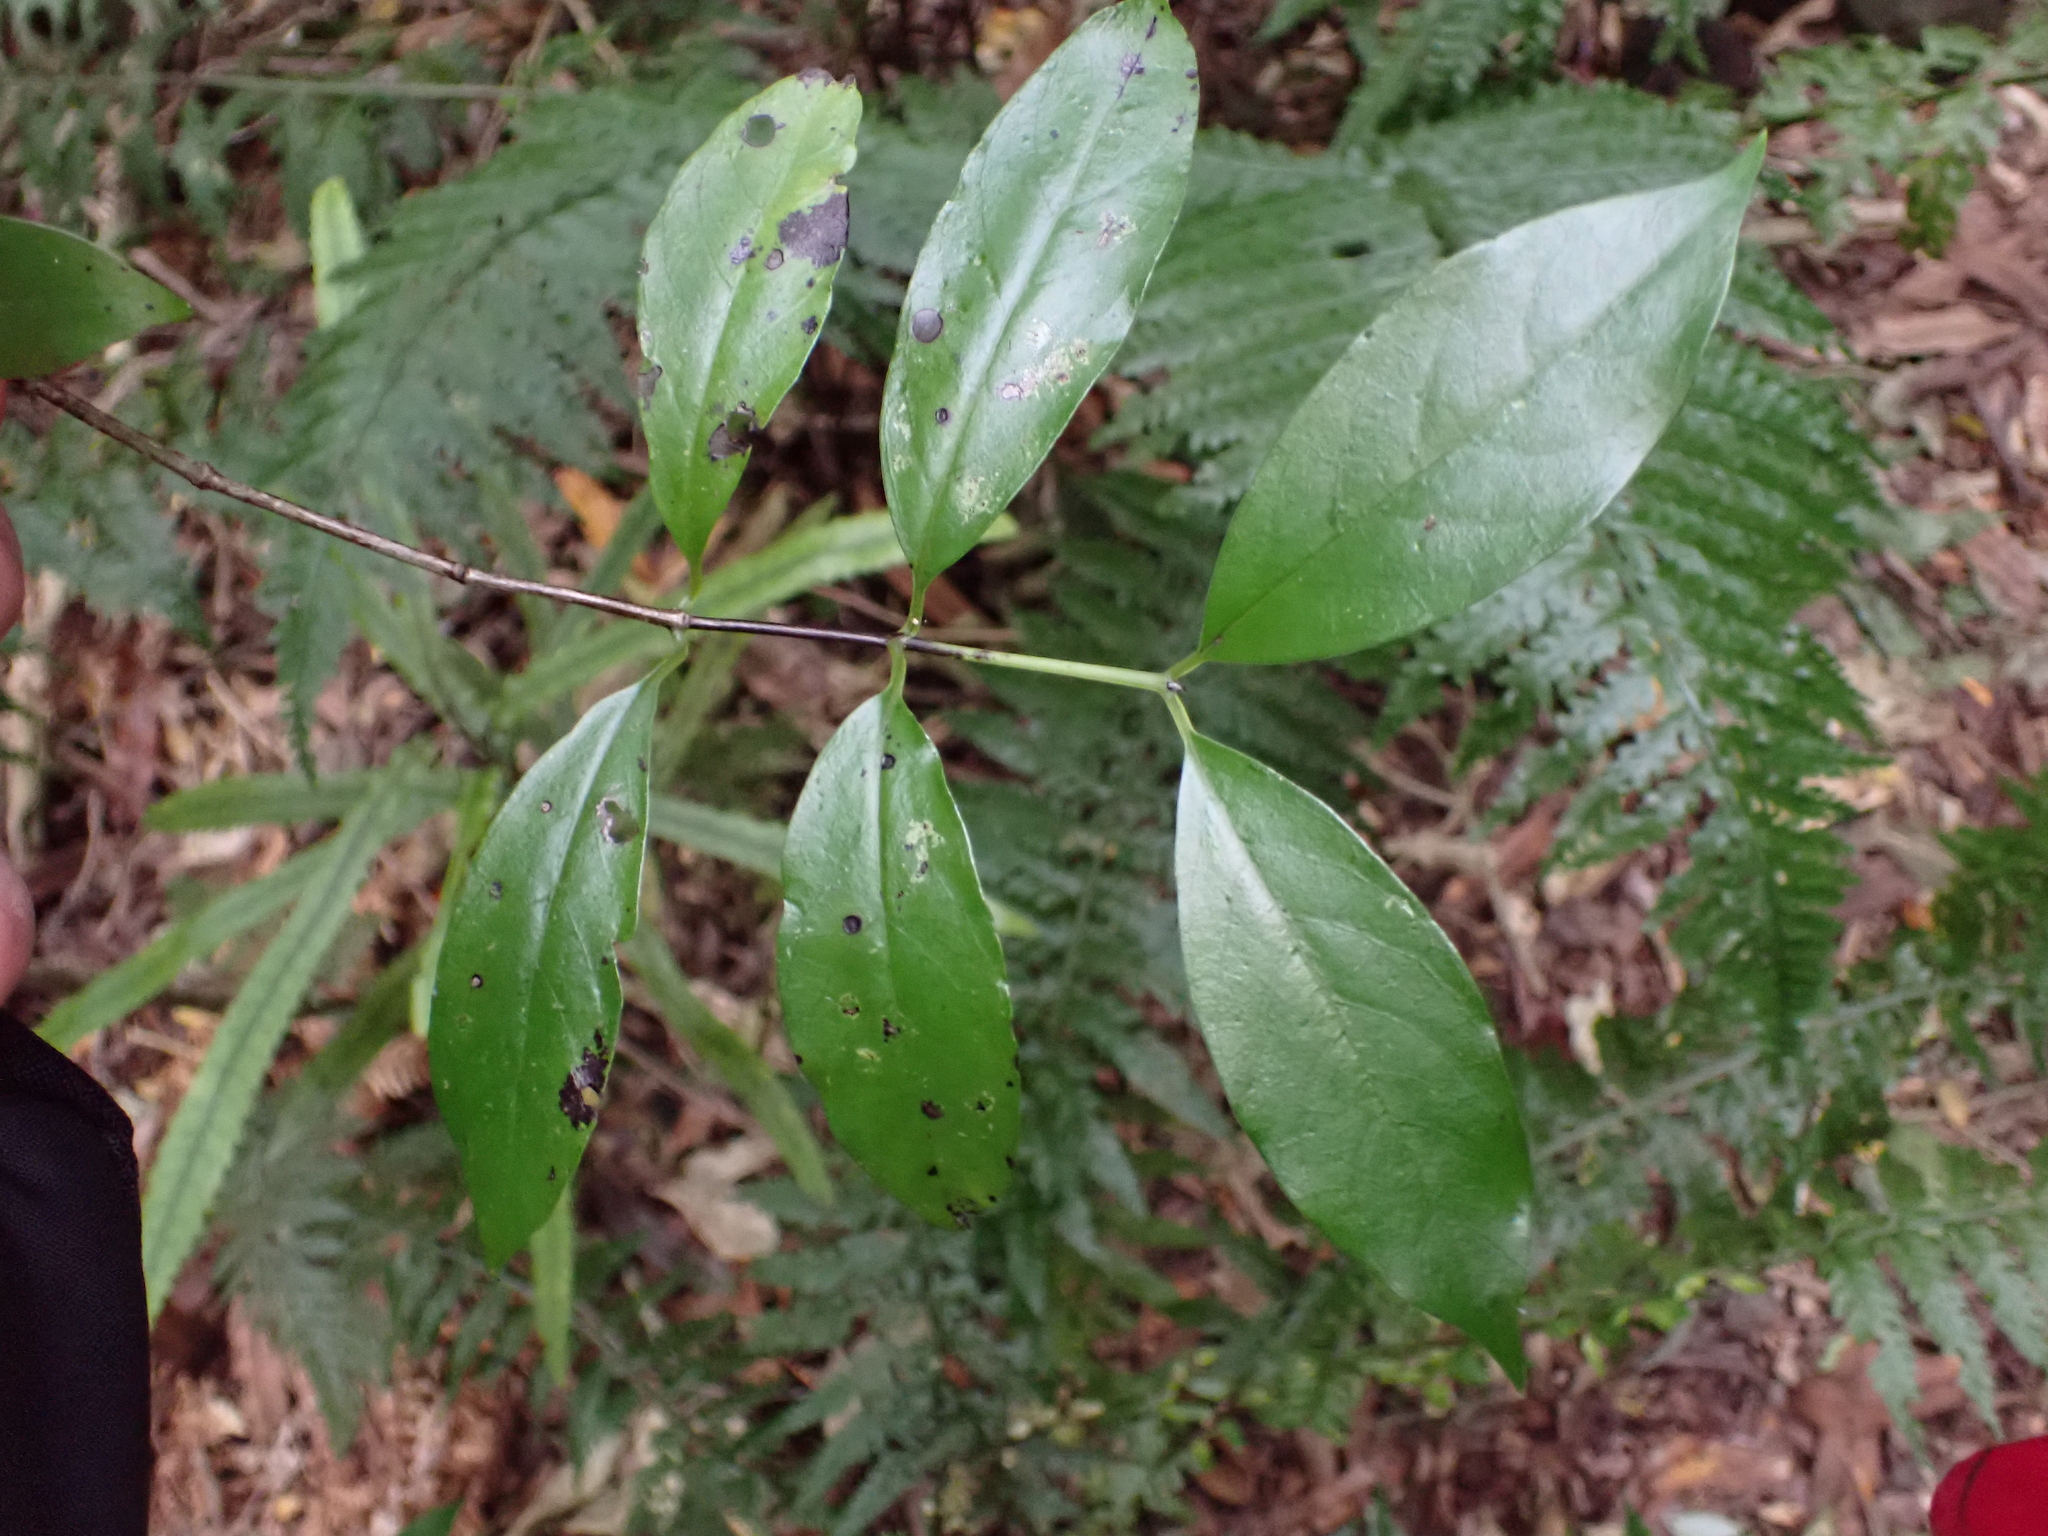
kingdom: Plantae
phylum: Tracheophyta
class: Magnoliopsida
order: Gentianales
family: Loganiaceae
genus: Geniostoma
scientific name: Geniostoma ligustrifolium
